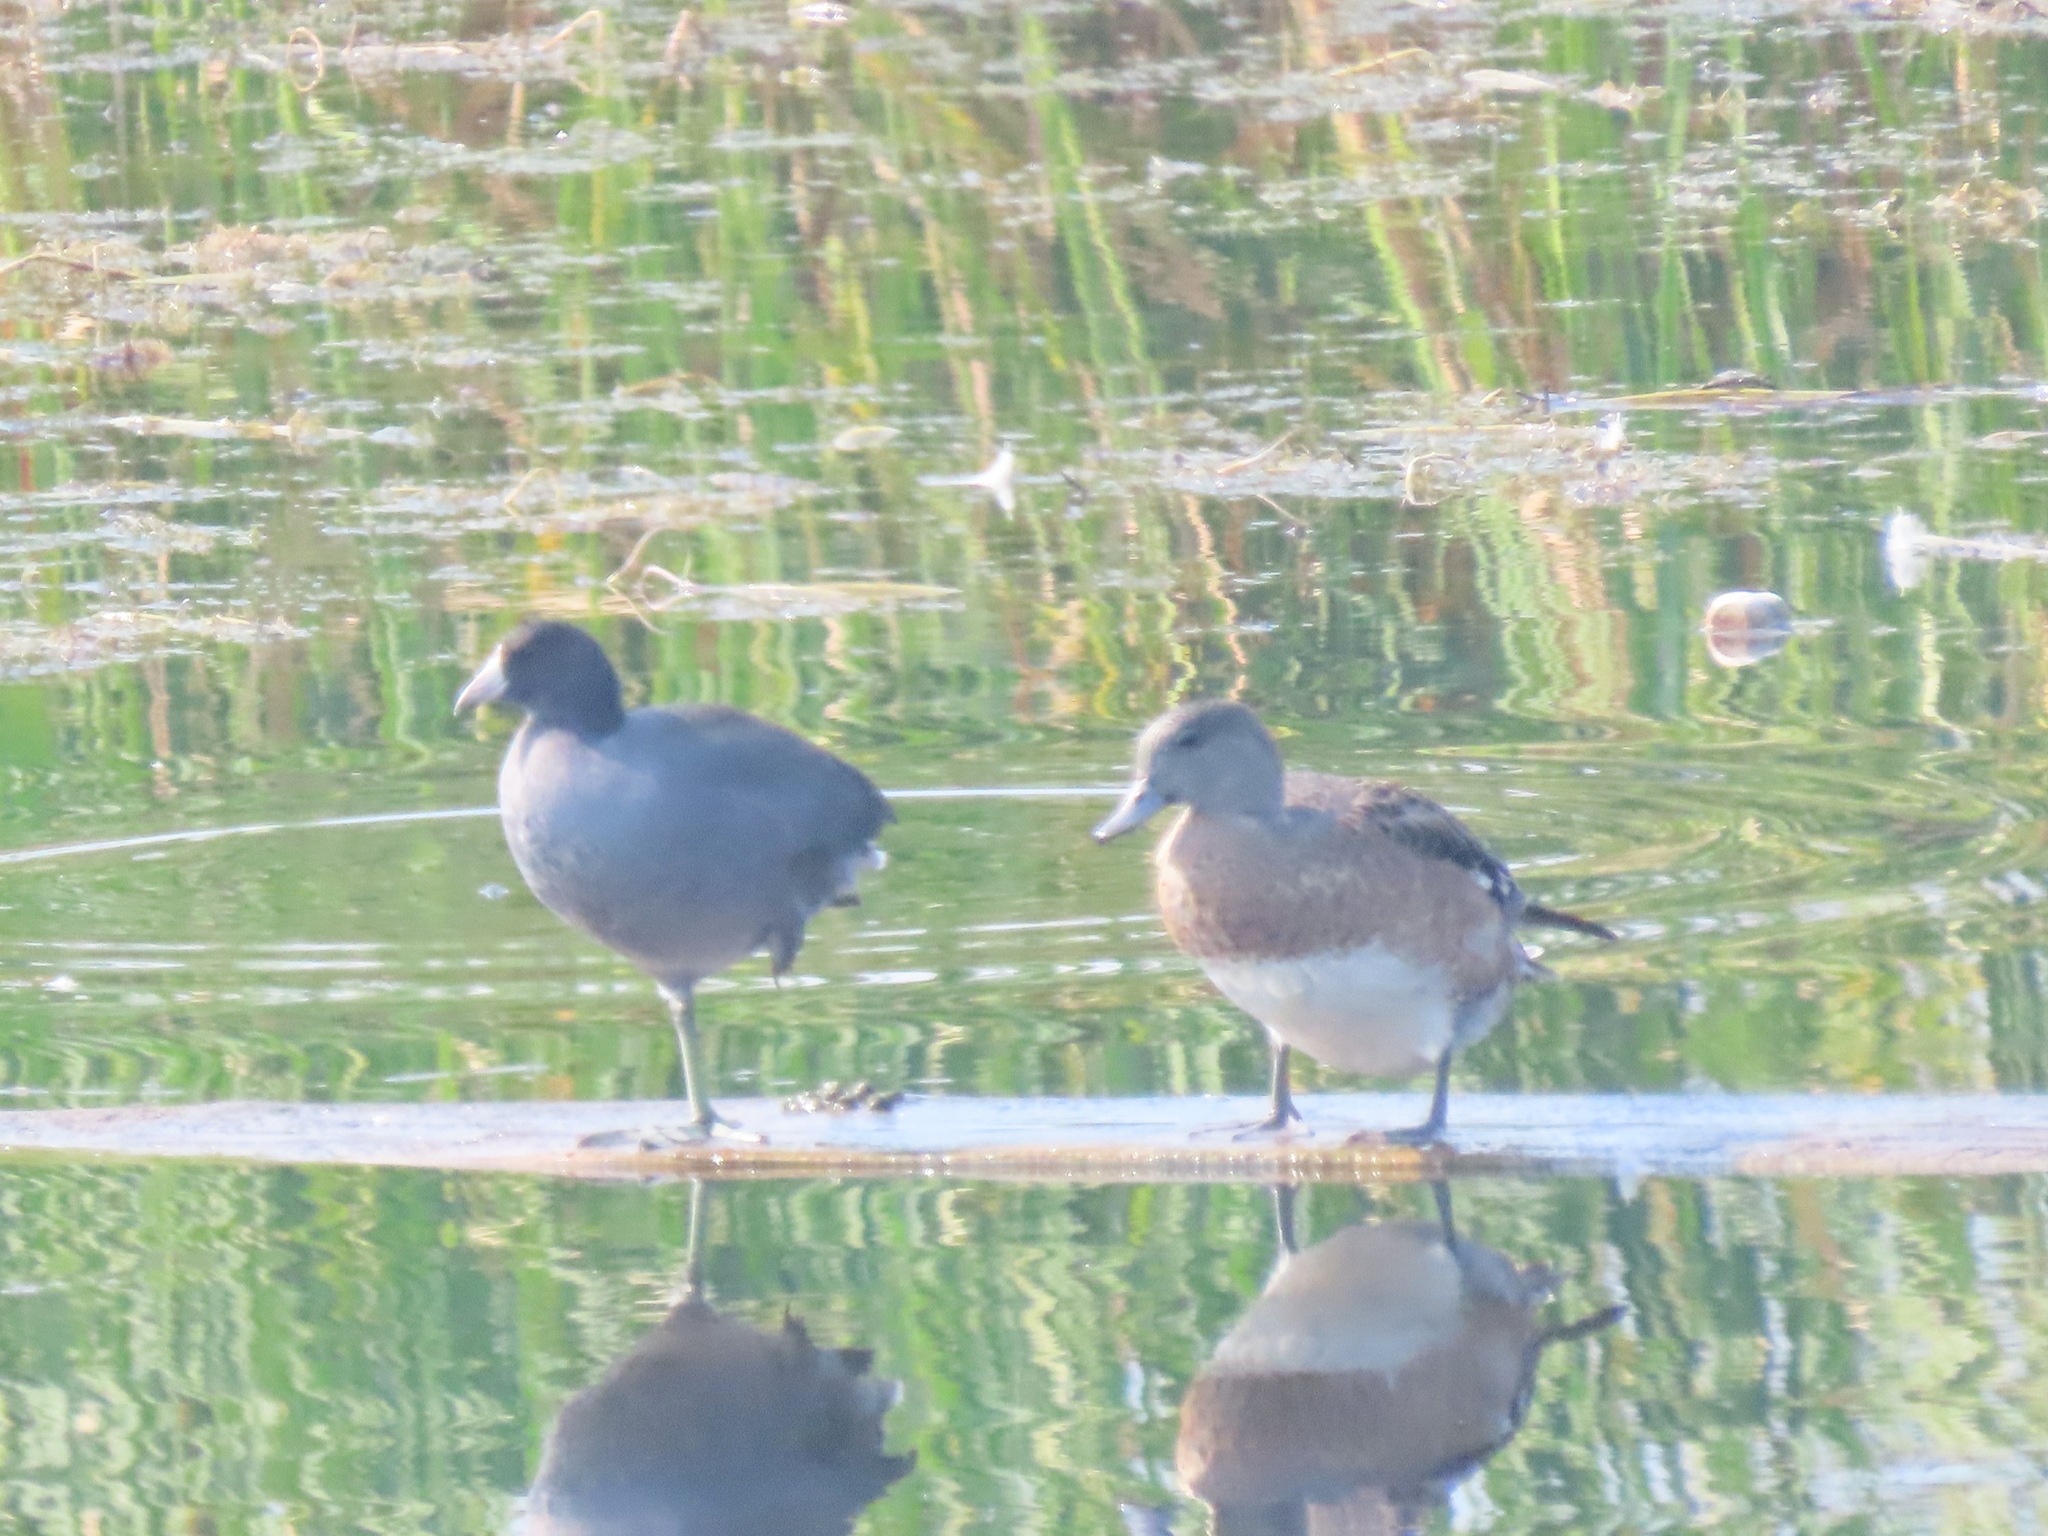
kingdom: Animalia
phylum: Chordata
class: Aves
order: Gruiformes
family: Rallidae
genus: Fulica
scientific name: Fulica americana
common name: American coot
